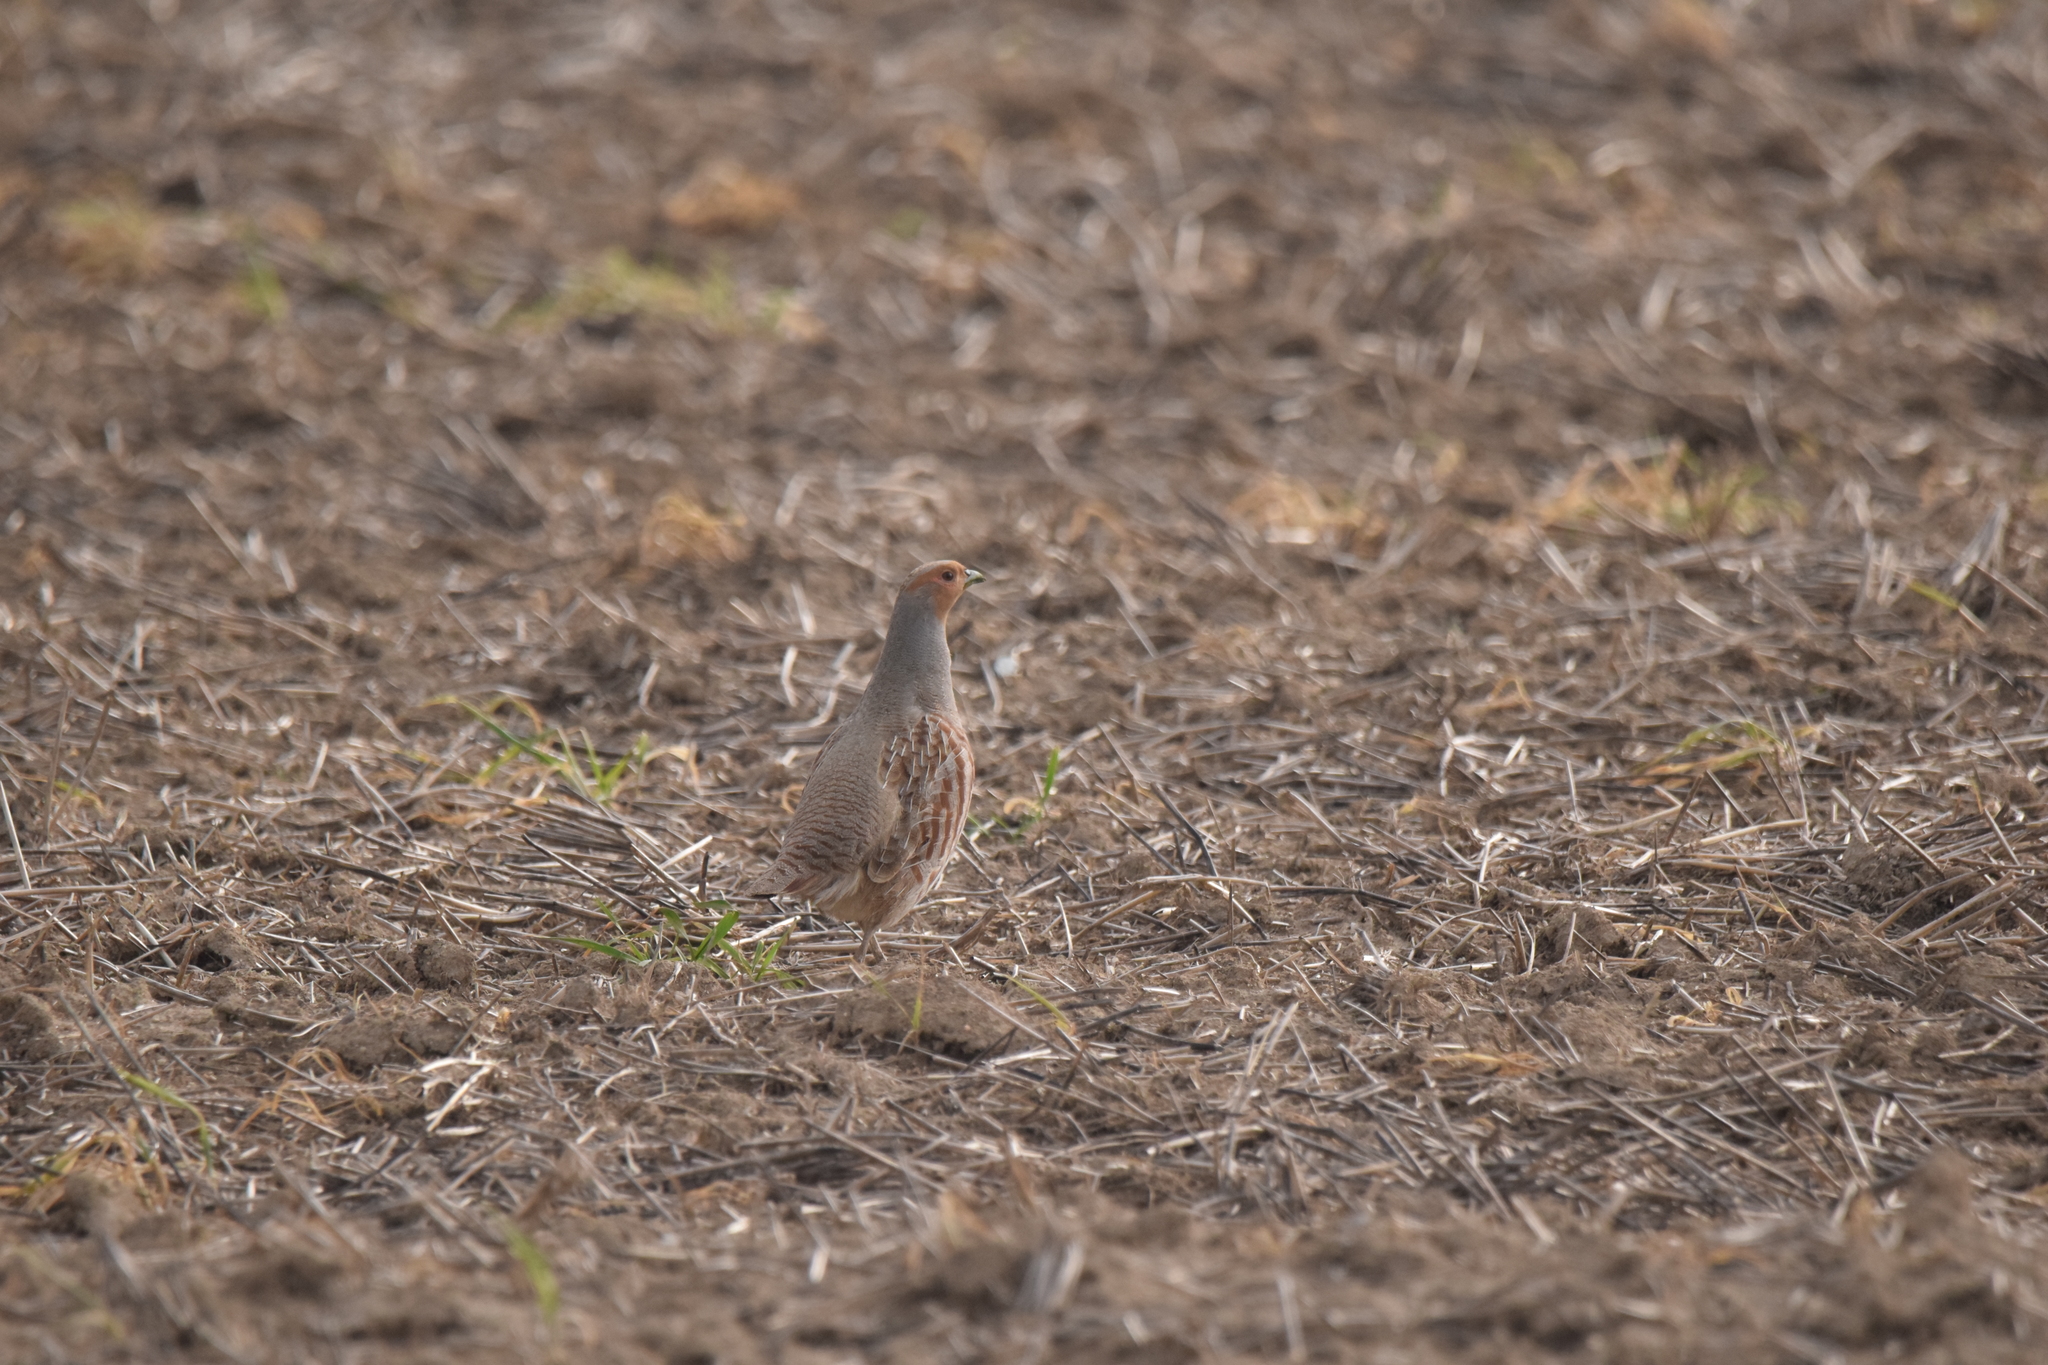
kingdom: Animalia
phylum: Chordata
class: Aves
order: Galliformes
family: Phasianidae
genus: Perdix
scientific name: Perdix perdix
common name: Grey partridge
